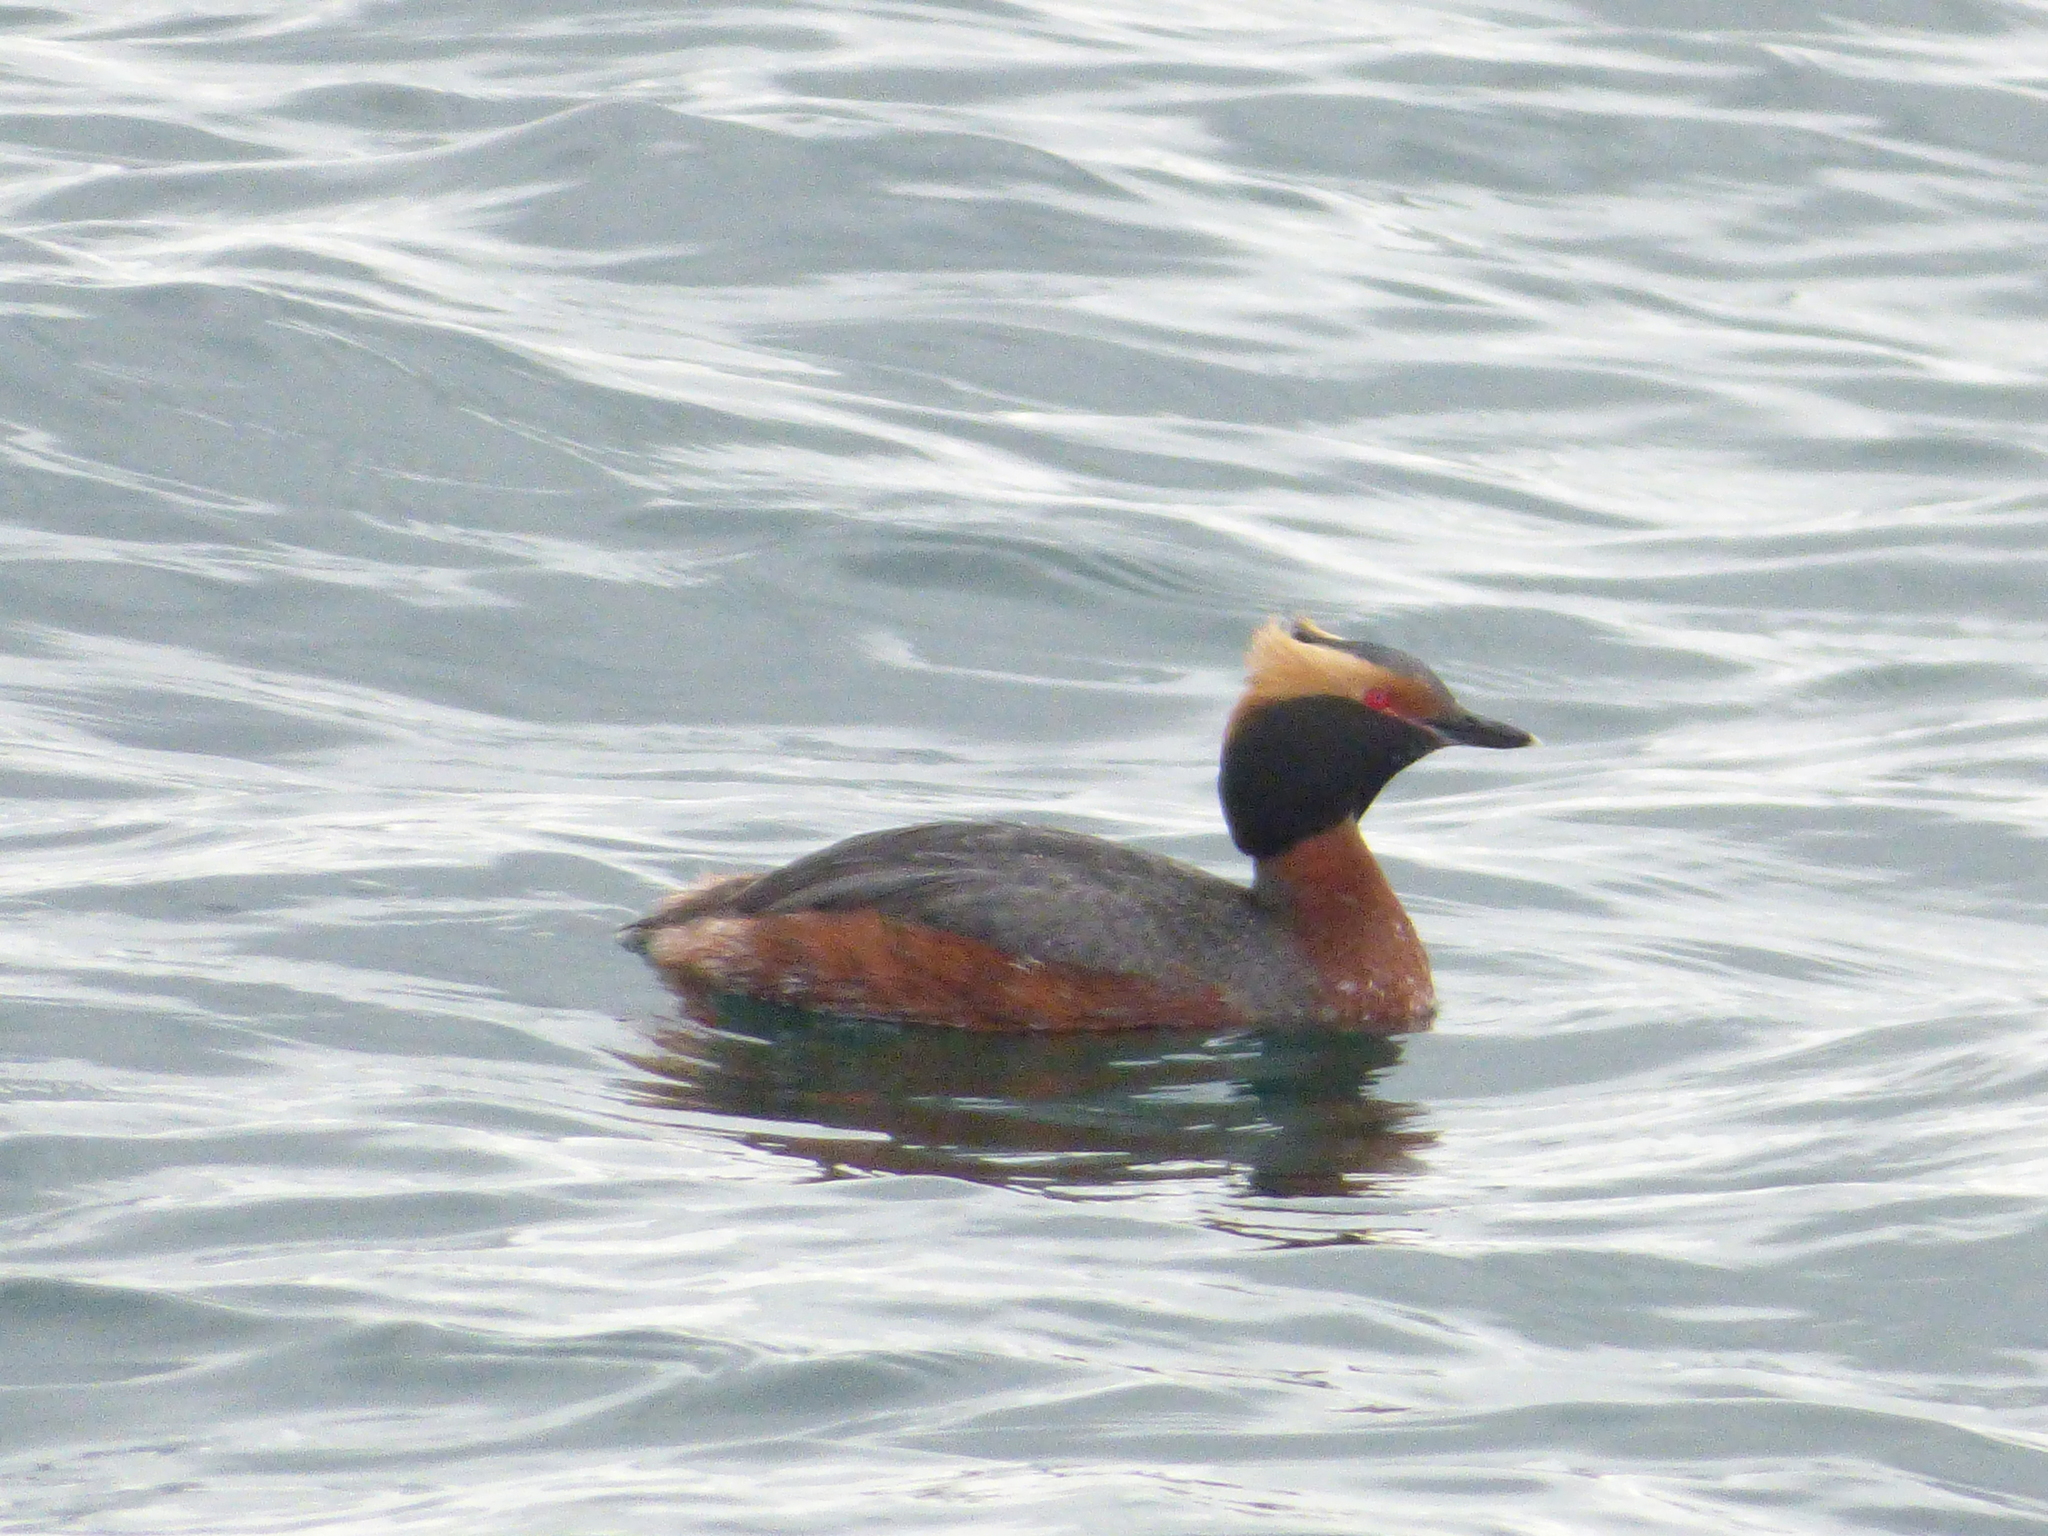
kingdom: Animalia
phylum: Chordata
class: Aves
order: Podicipediformes
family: Podicipedidae
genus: Podiceps
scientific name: Podiceps auritus
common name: Horned grebe
